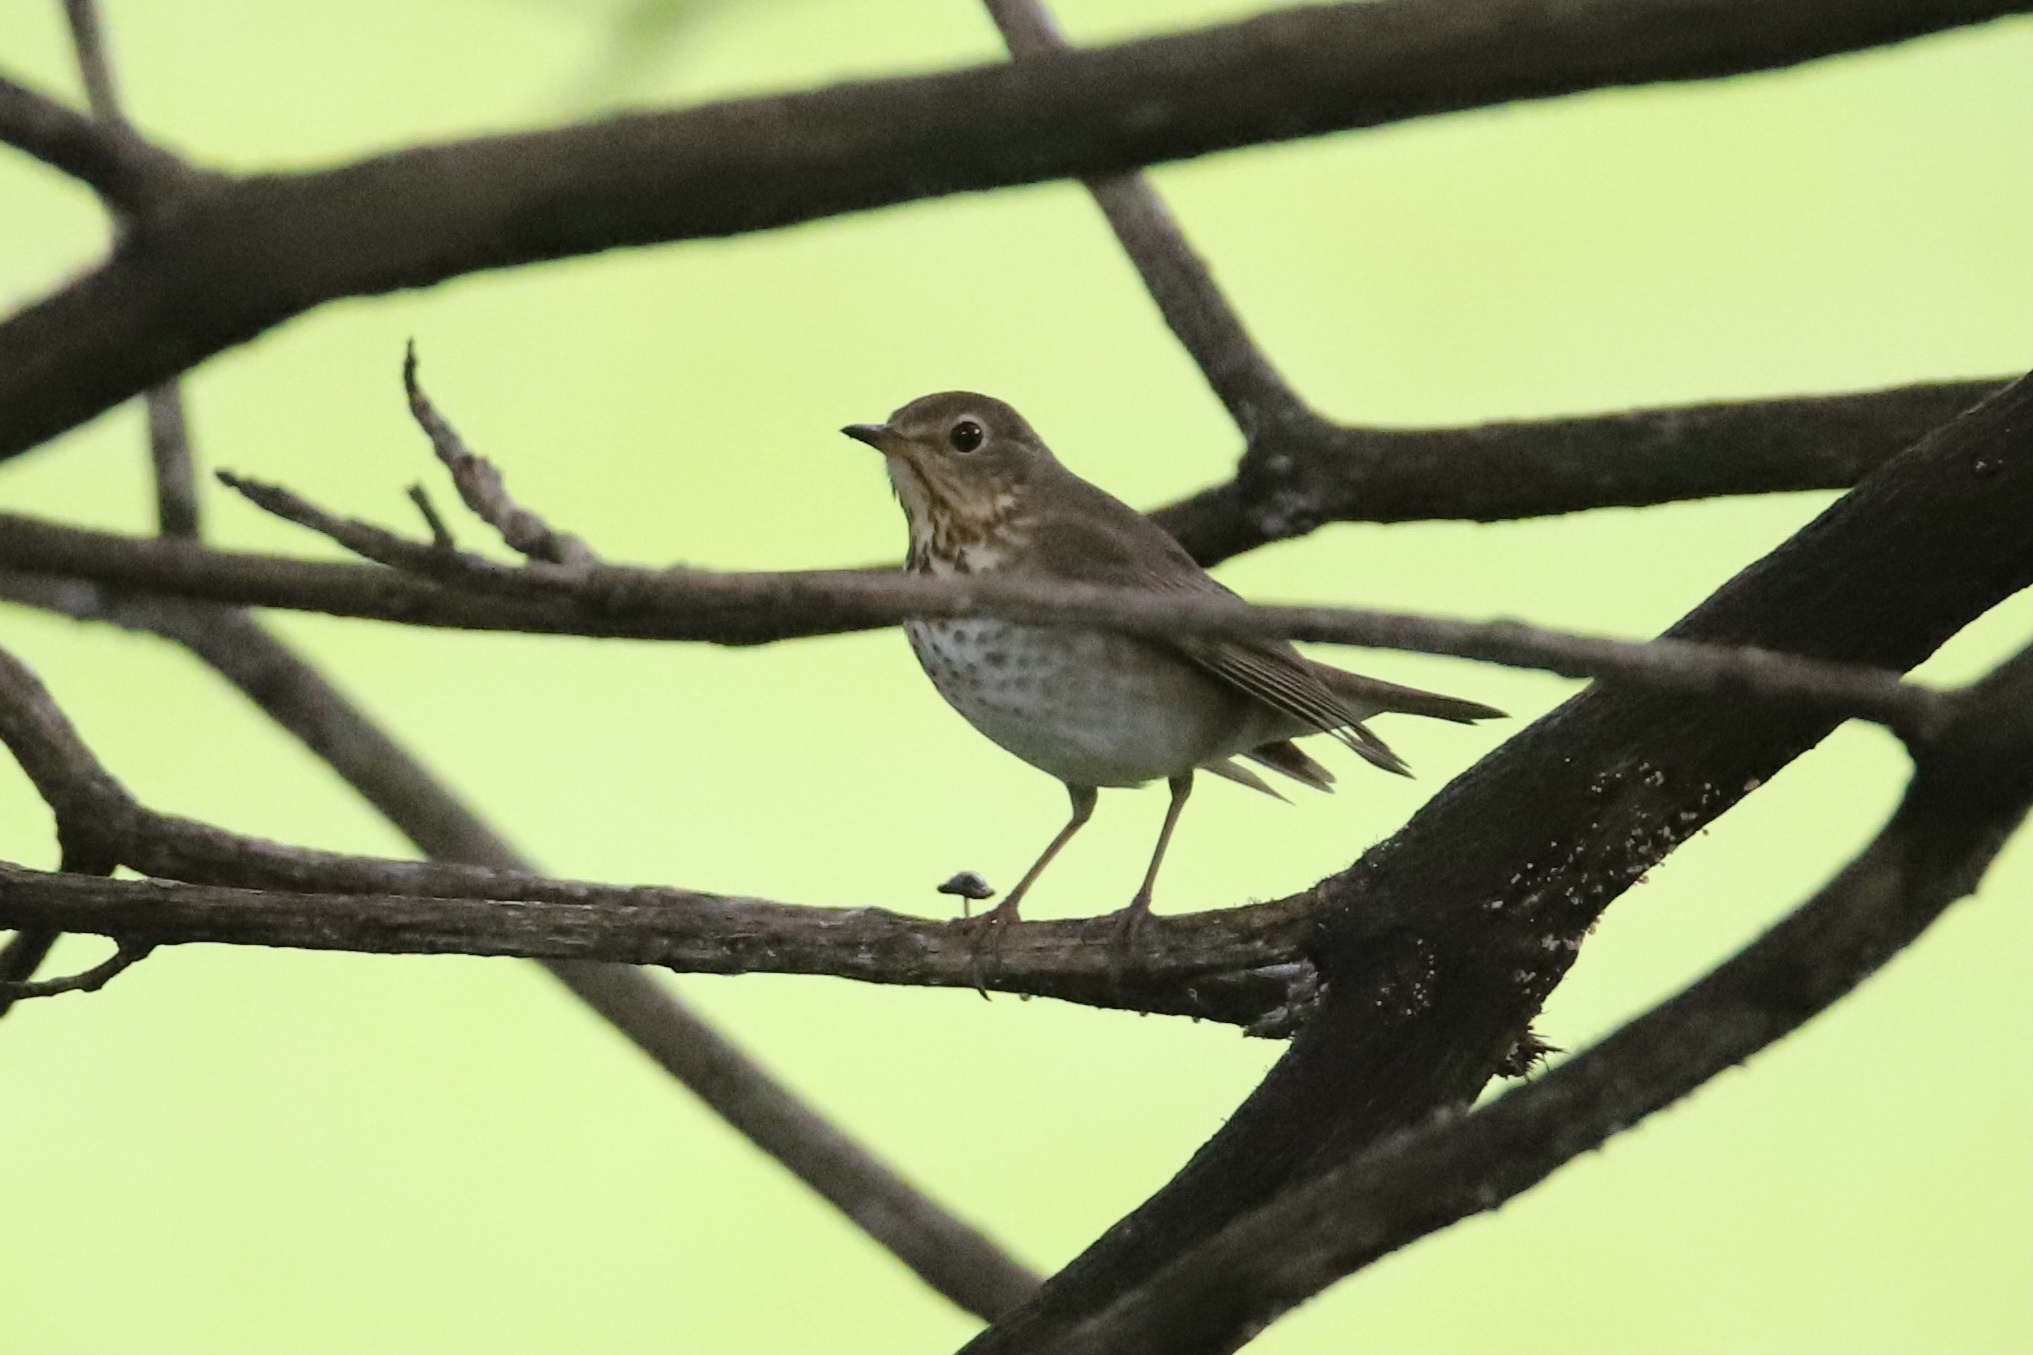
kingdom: Animalia
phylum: Chordata
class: Aves
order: Passeriformes
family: Turdidae
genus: Catharus
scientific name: Catharus ustulatus
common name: Swainson's thrush
